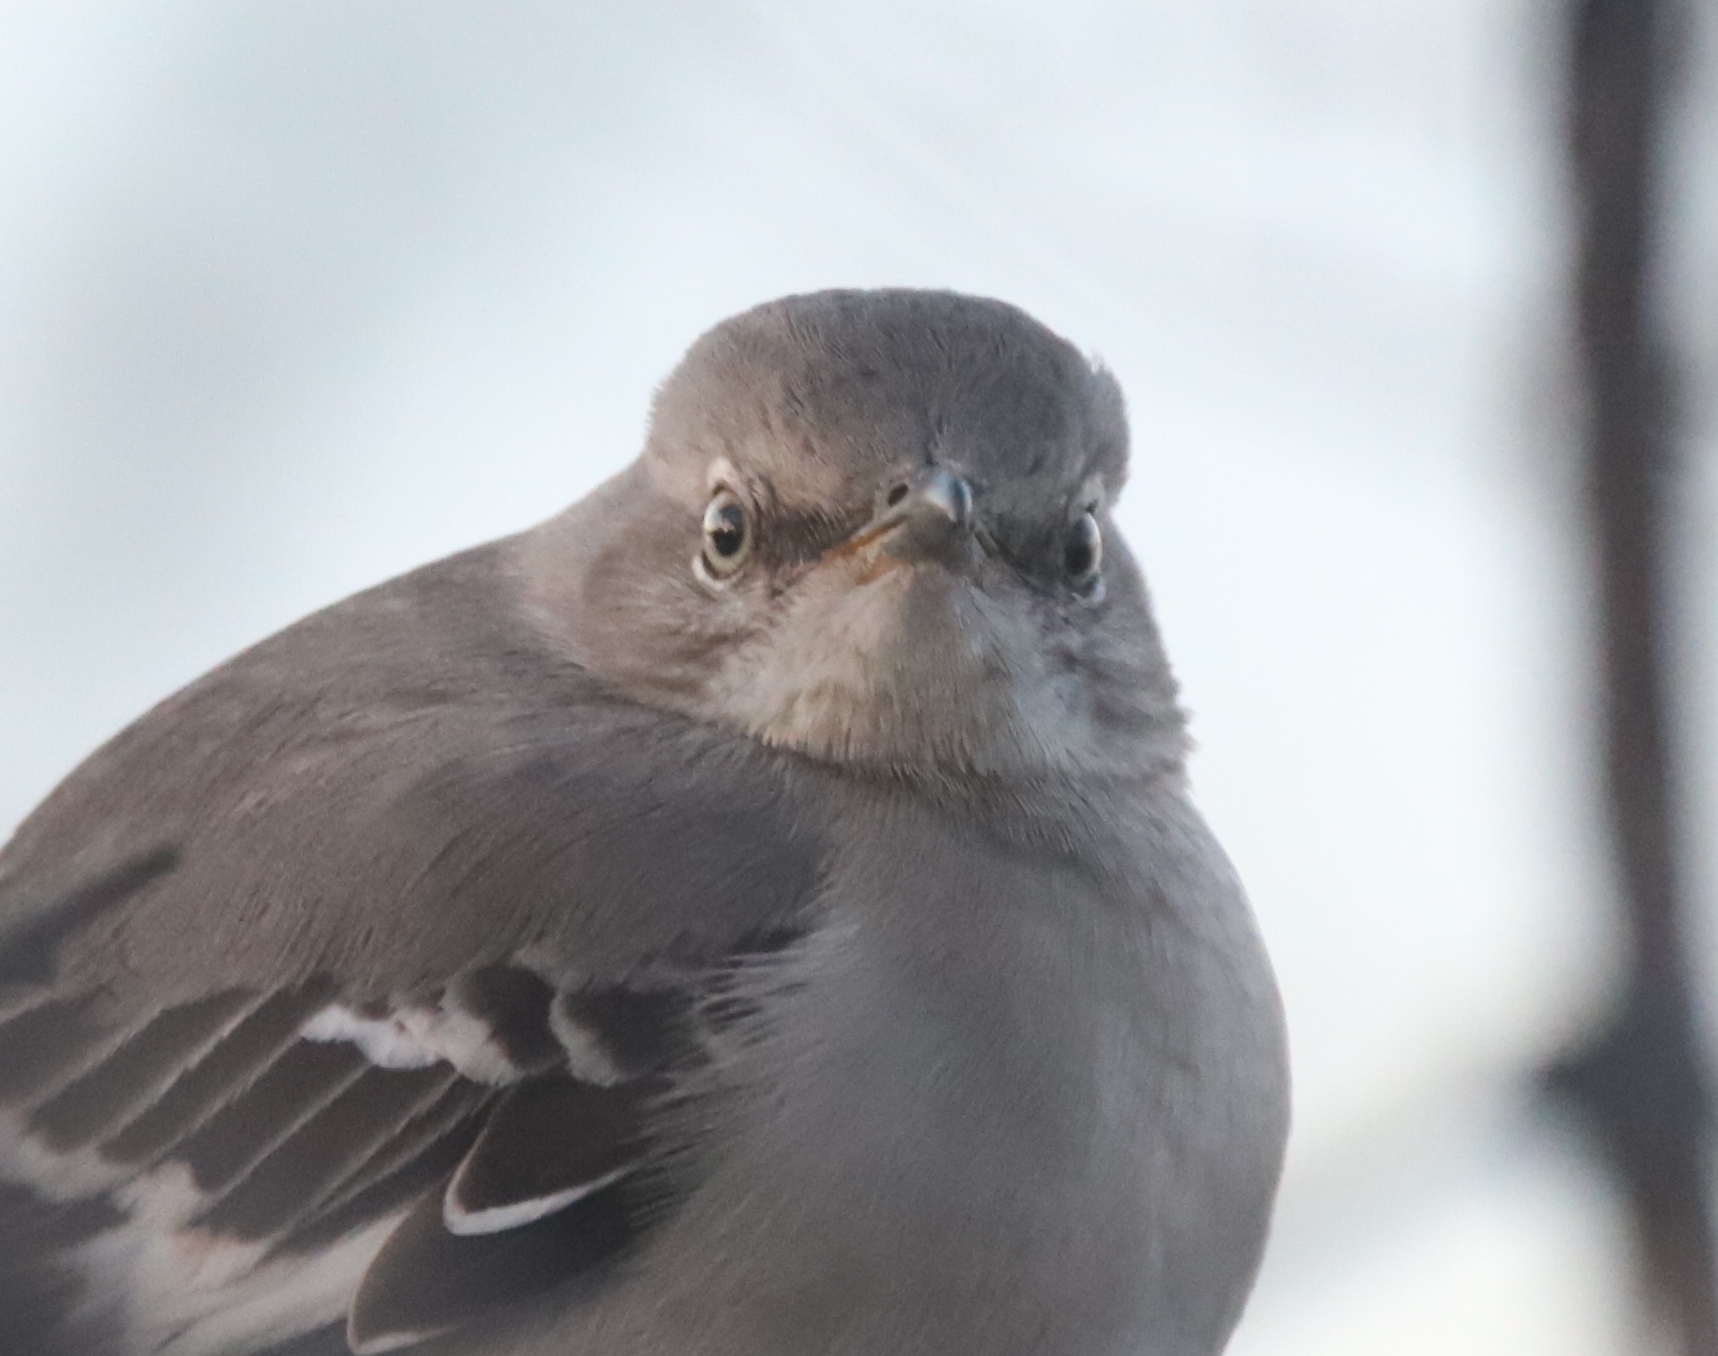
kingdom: Animalia
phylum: Chordata
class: Aves
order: Passeriformes
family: Mimidae
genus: Mimus
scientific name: Mimus polyglottos
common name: Northern mockingbird
